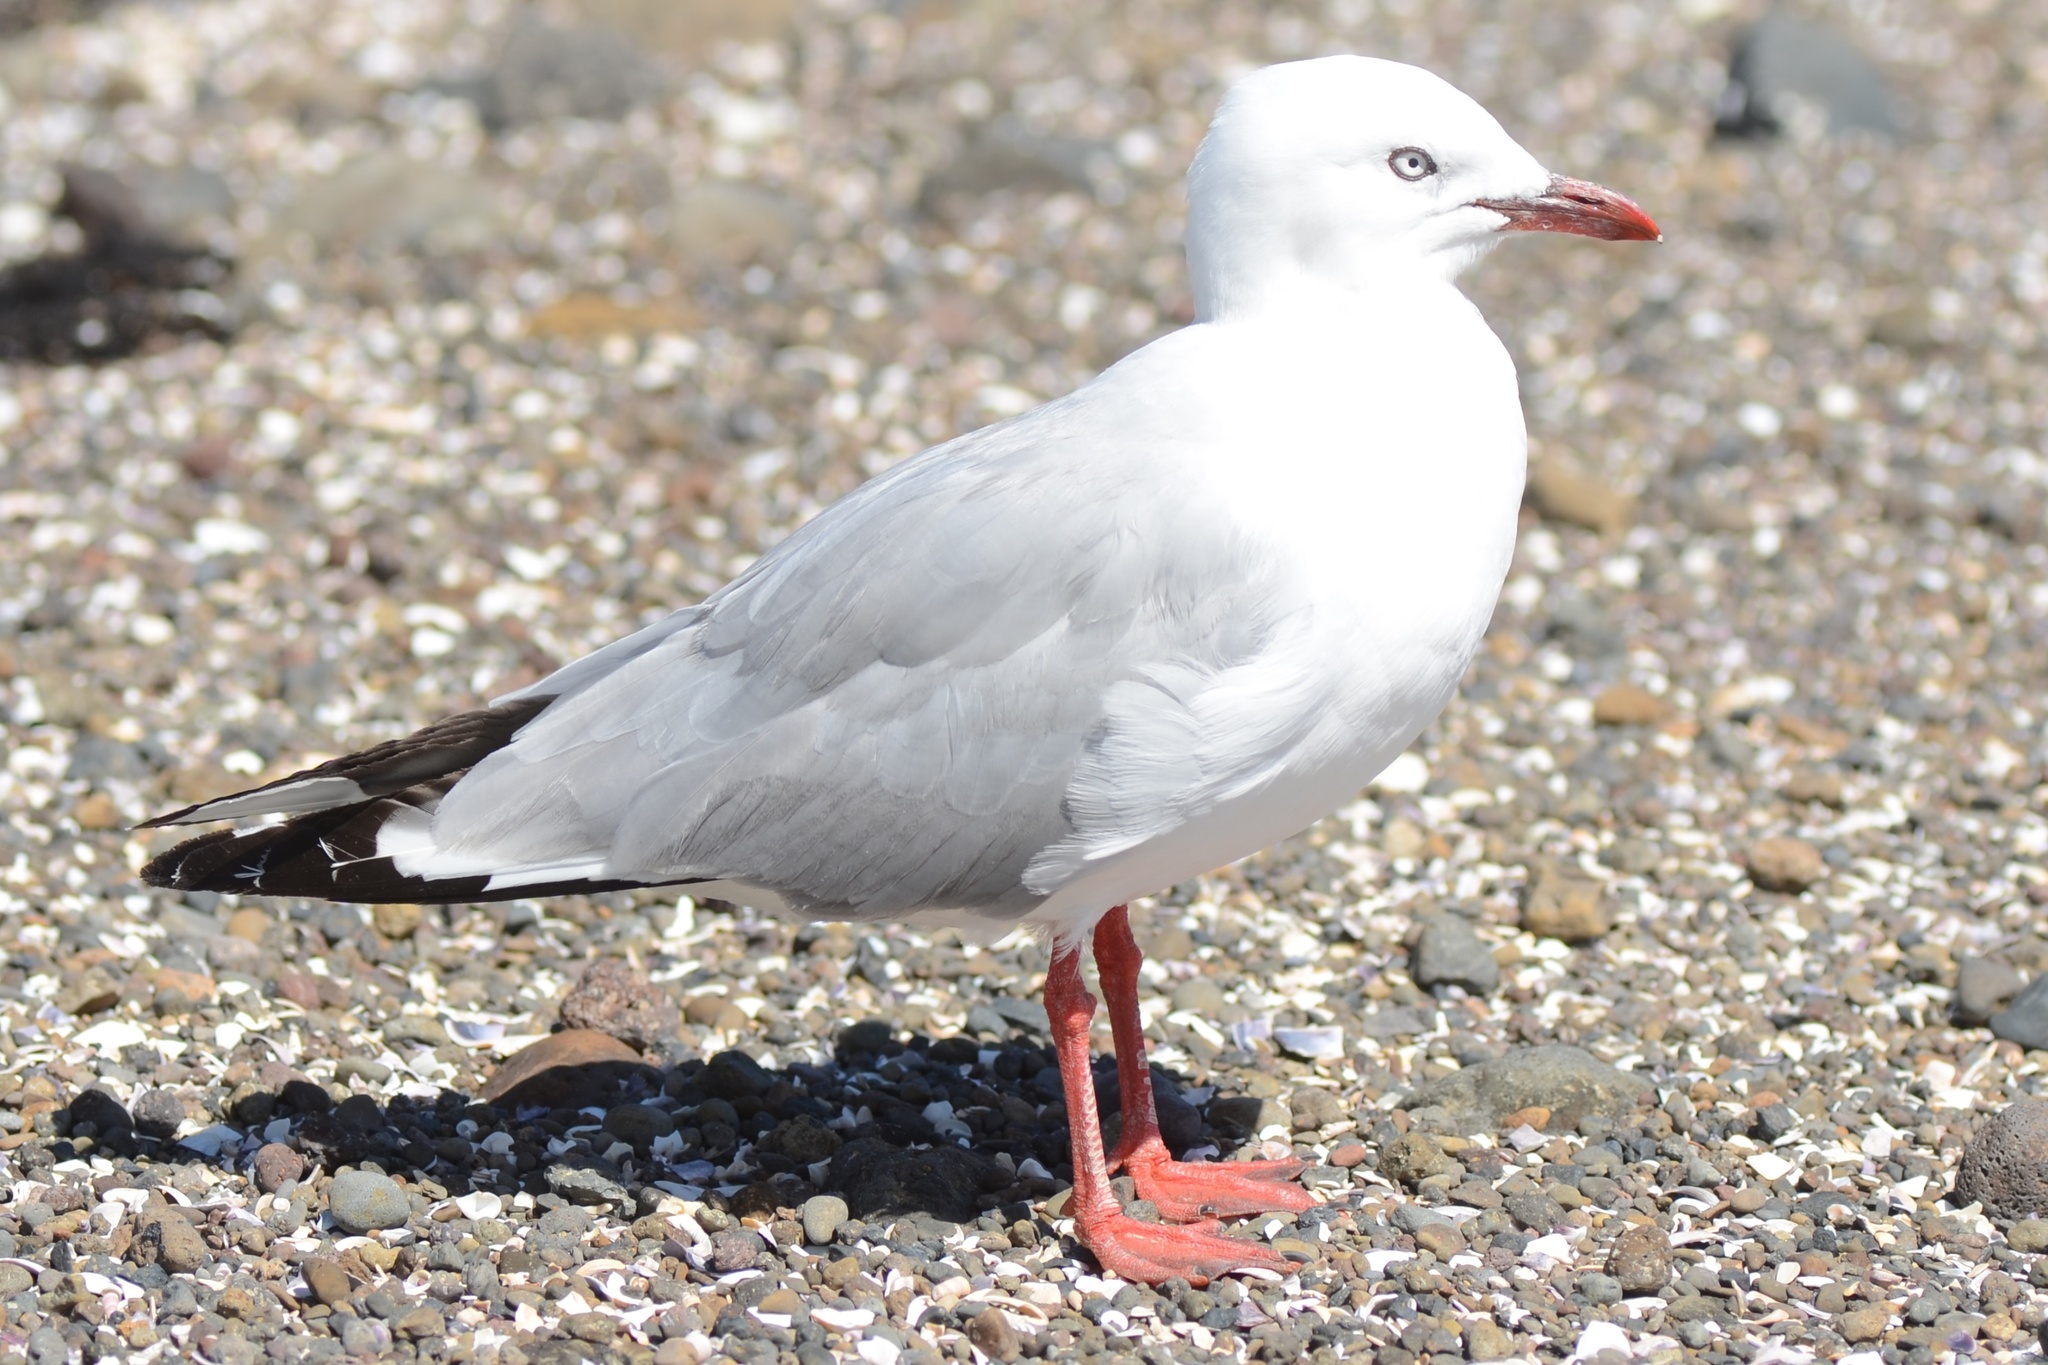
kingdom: Animalia
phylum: Chordata
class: Aves
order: Charadriiformes
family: Laridae
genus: Chroicocephalus
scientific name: Chroicocephalus novaehollandiae
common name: Silver gull
